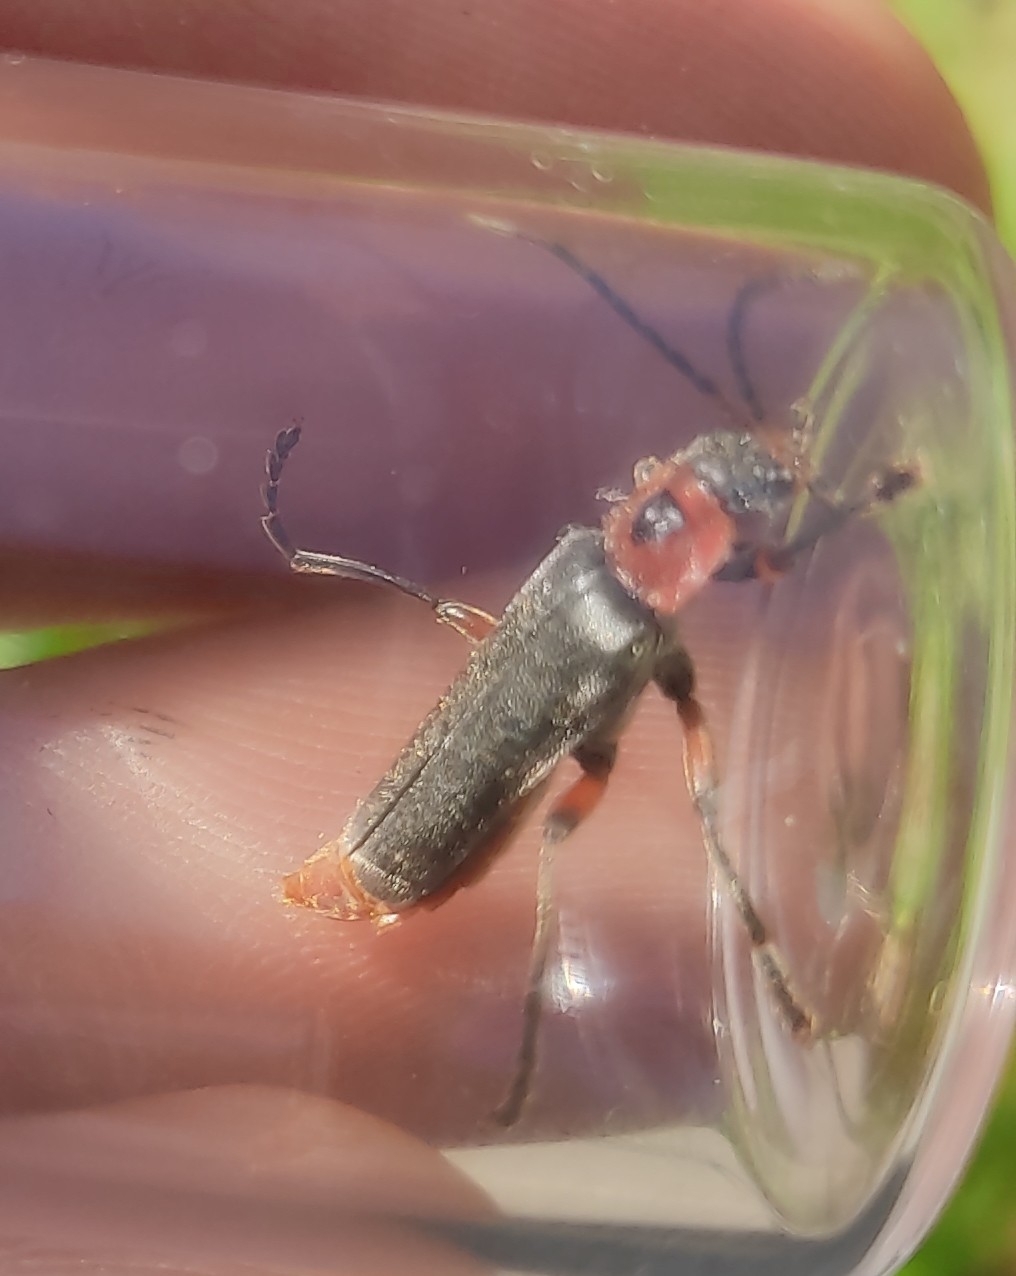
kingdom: Animalia
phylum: Arthropoda
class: Insecta
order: Coleoptera
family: Cantharidae
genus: Cantharis
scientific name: Cantharis rustica
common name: Soldier beetle
